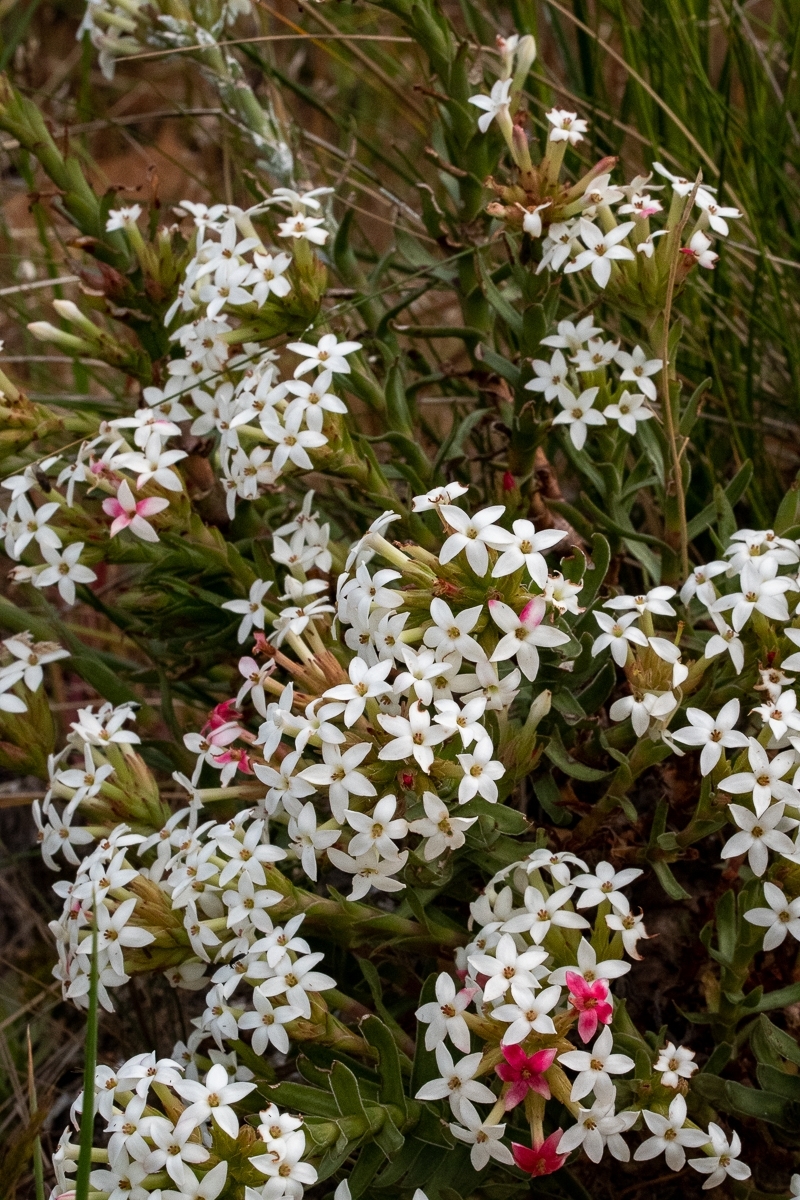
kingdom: Plantae
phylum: Tracheophyta
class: Magnoliopsida
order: Saxifragales
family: Crassulaceae
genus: Crassula
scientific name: Crassula fascicularis
